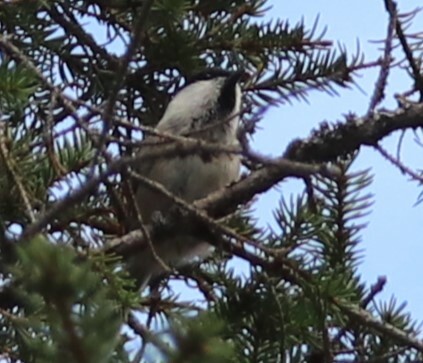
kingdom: Animalia
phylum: Chordata
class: Aves
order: Passeriformes
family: Paridae
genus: Poecile
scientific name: Poecile montanus
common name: Willow tit
